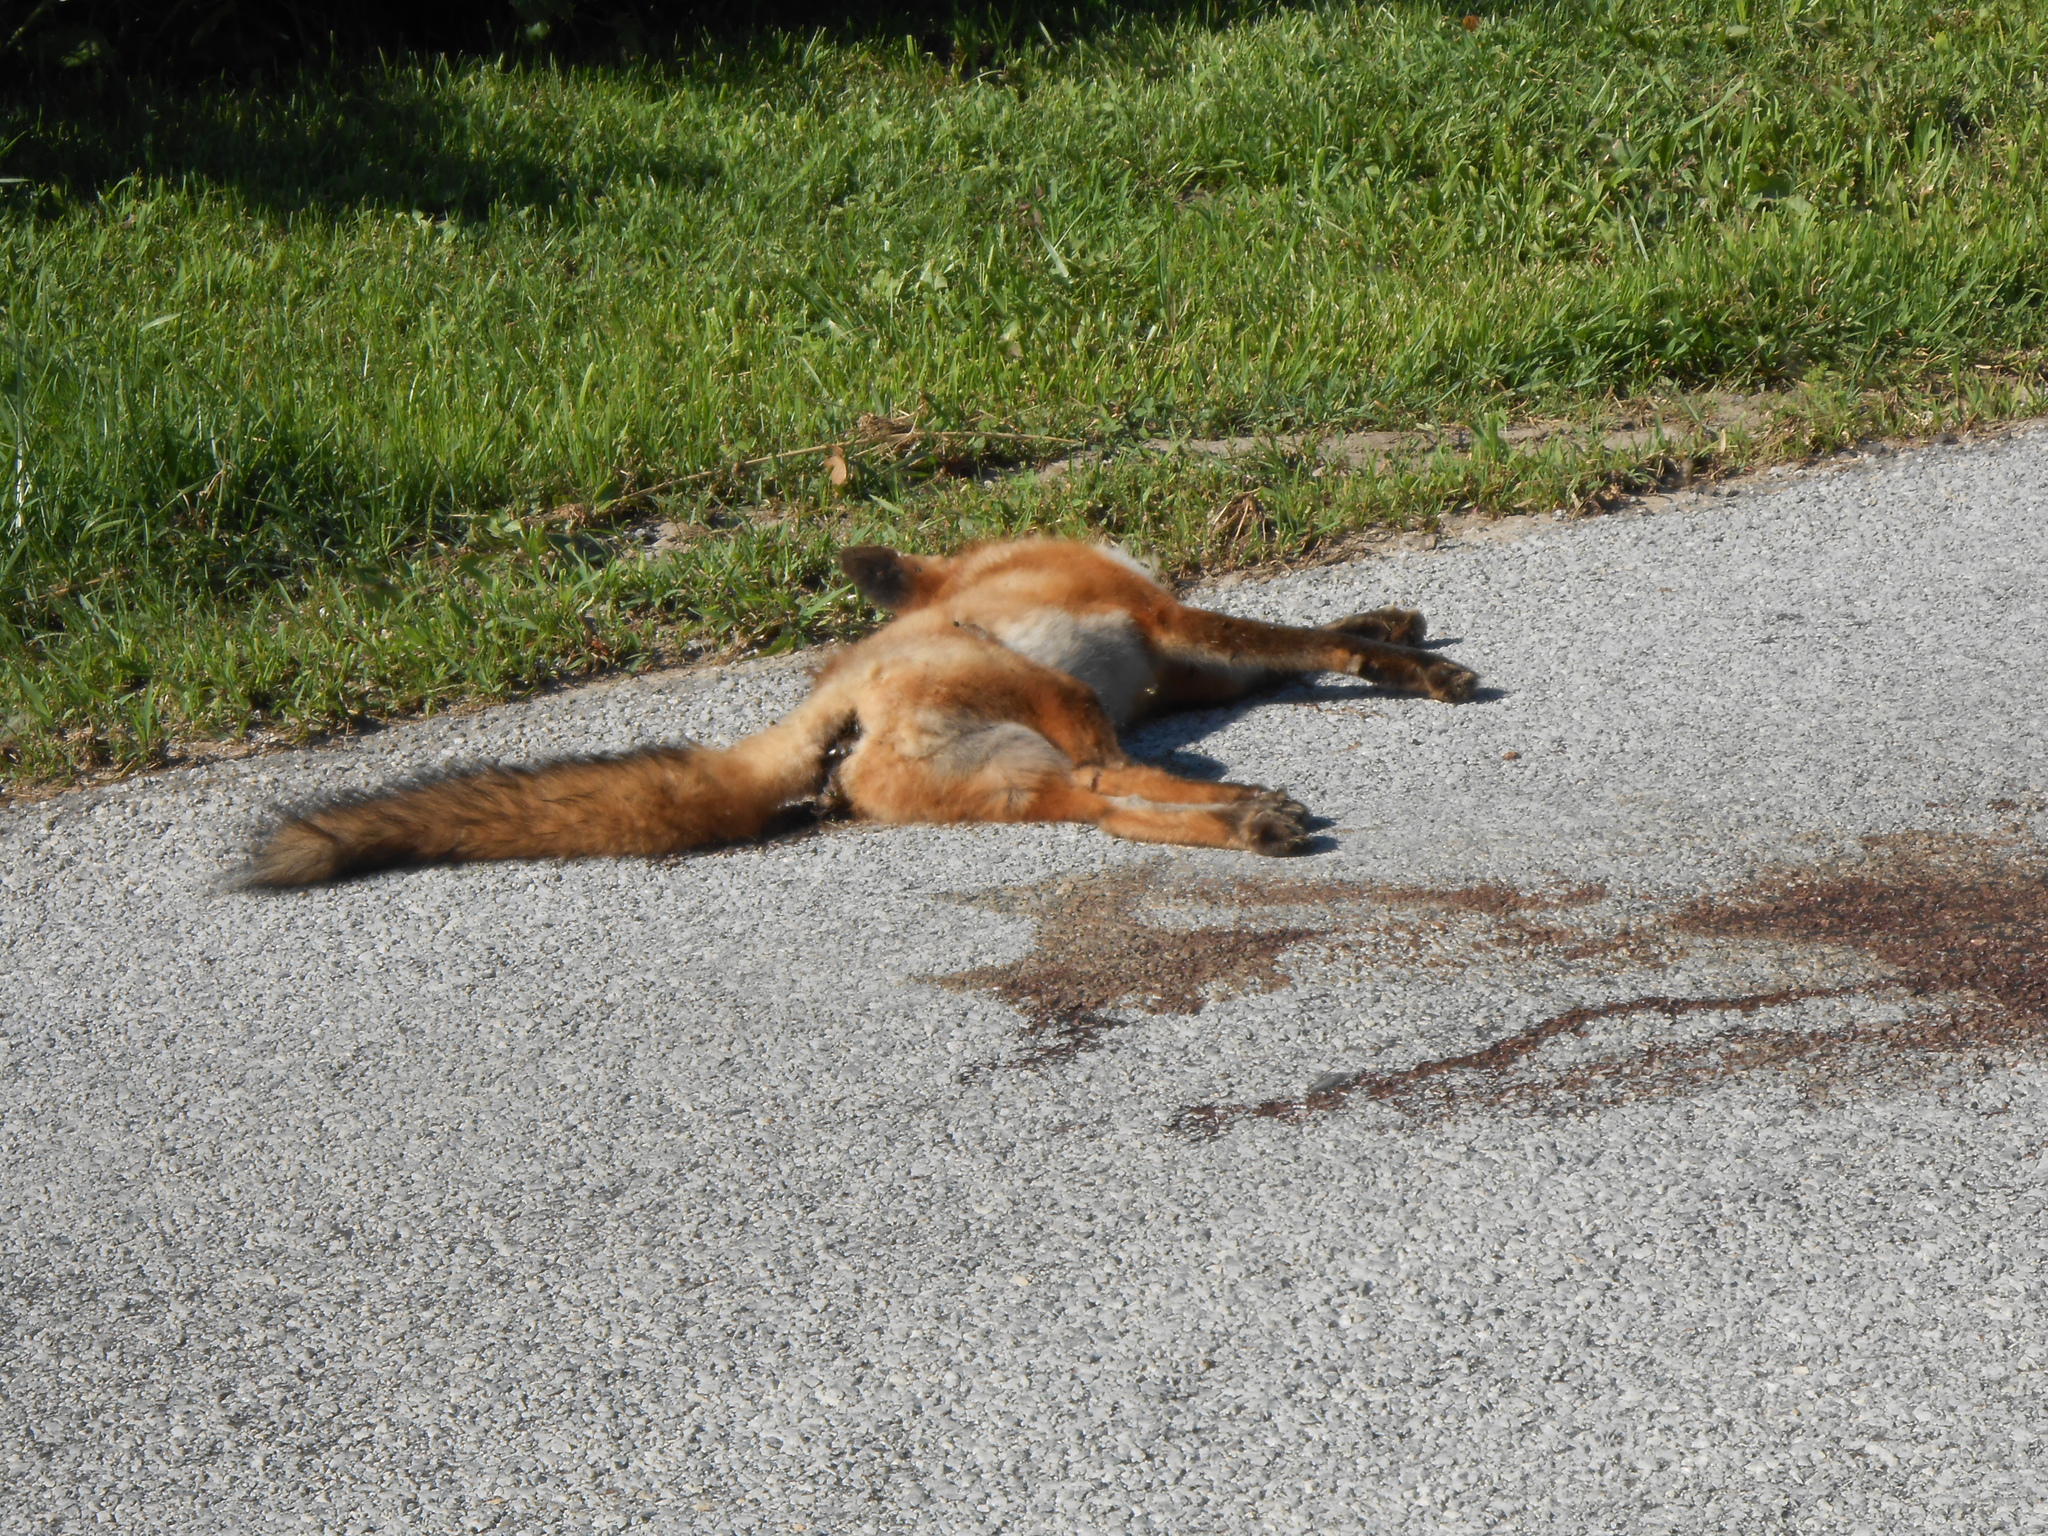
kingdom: Animalia
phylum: Chordata
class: Mammalia
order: Carnivora
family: Canidae
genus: Vulpes
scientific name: Vulpes vulpes
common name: Red fox
